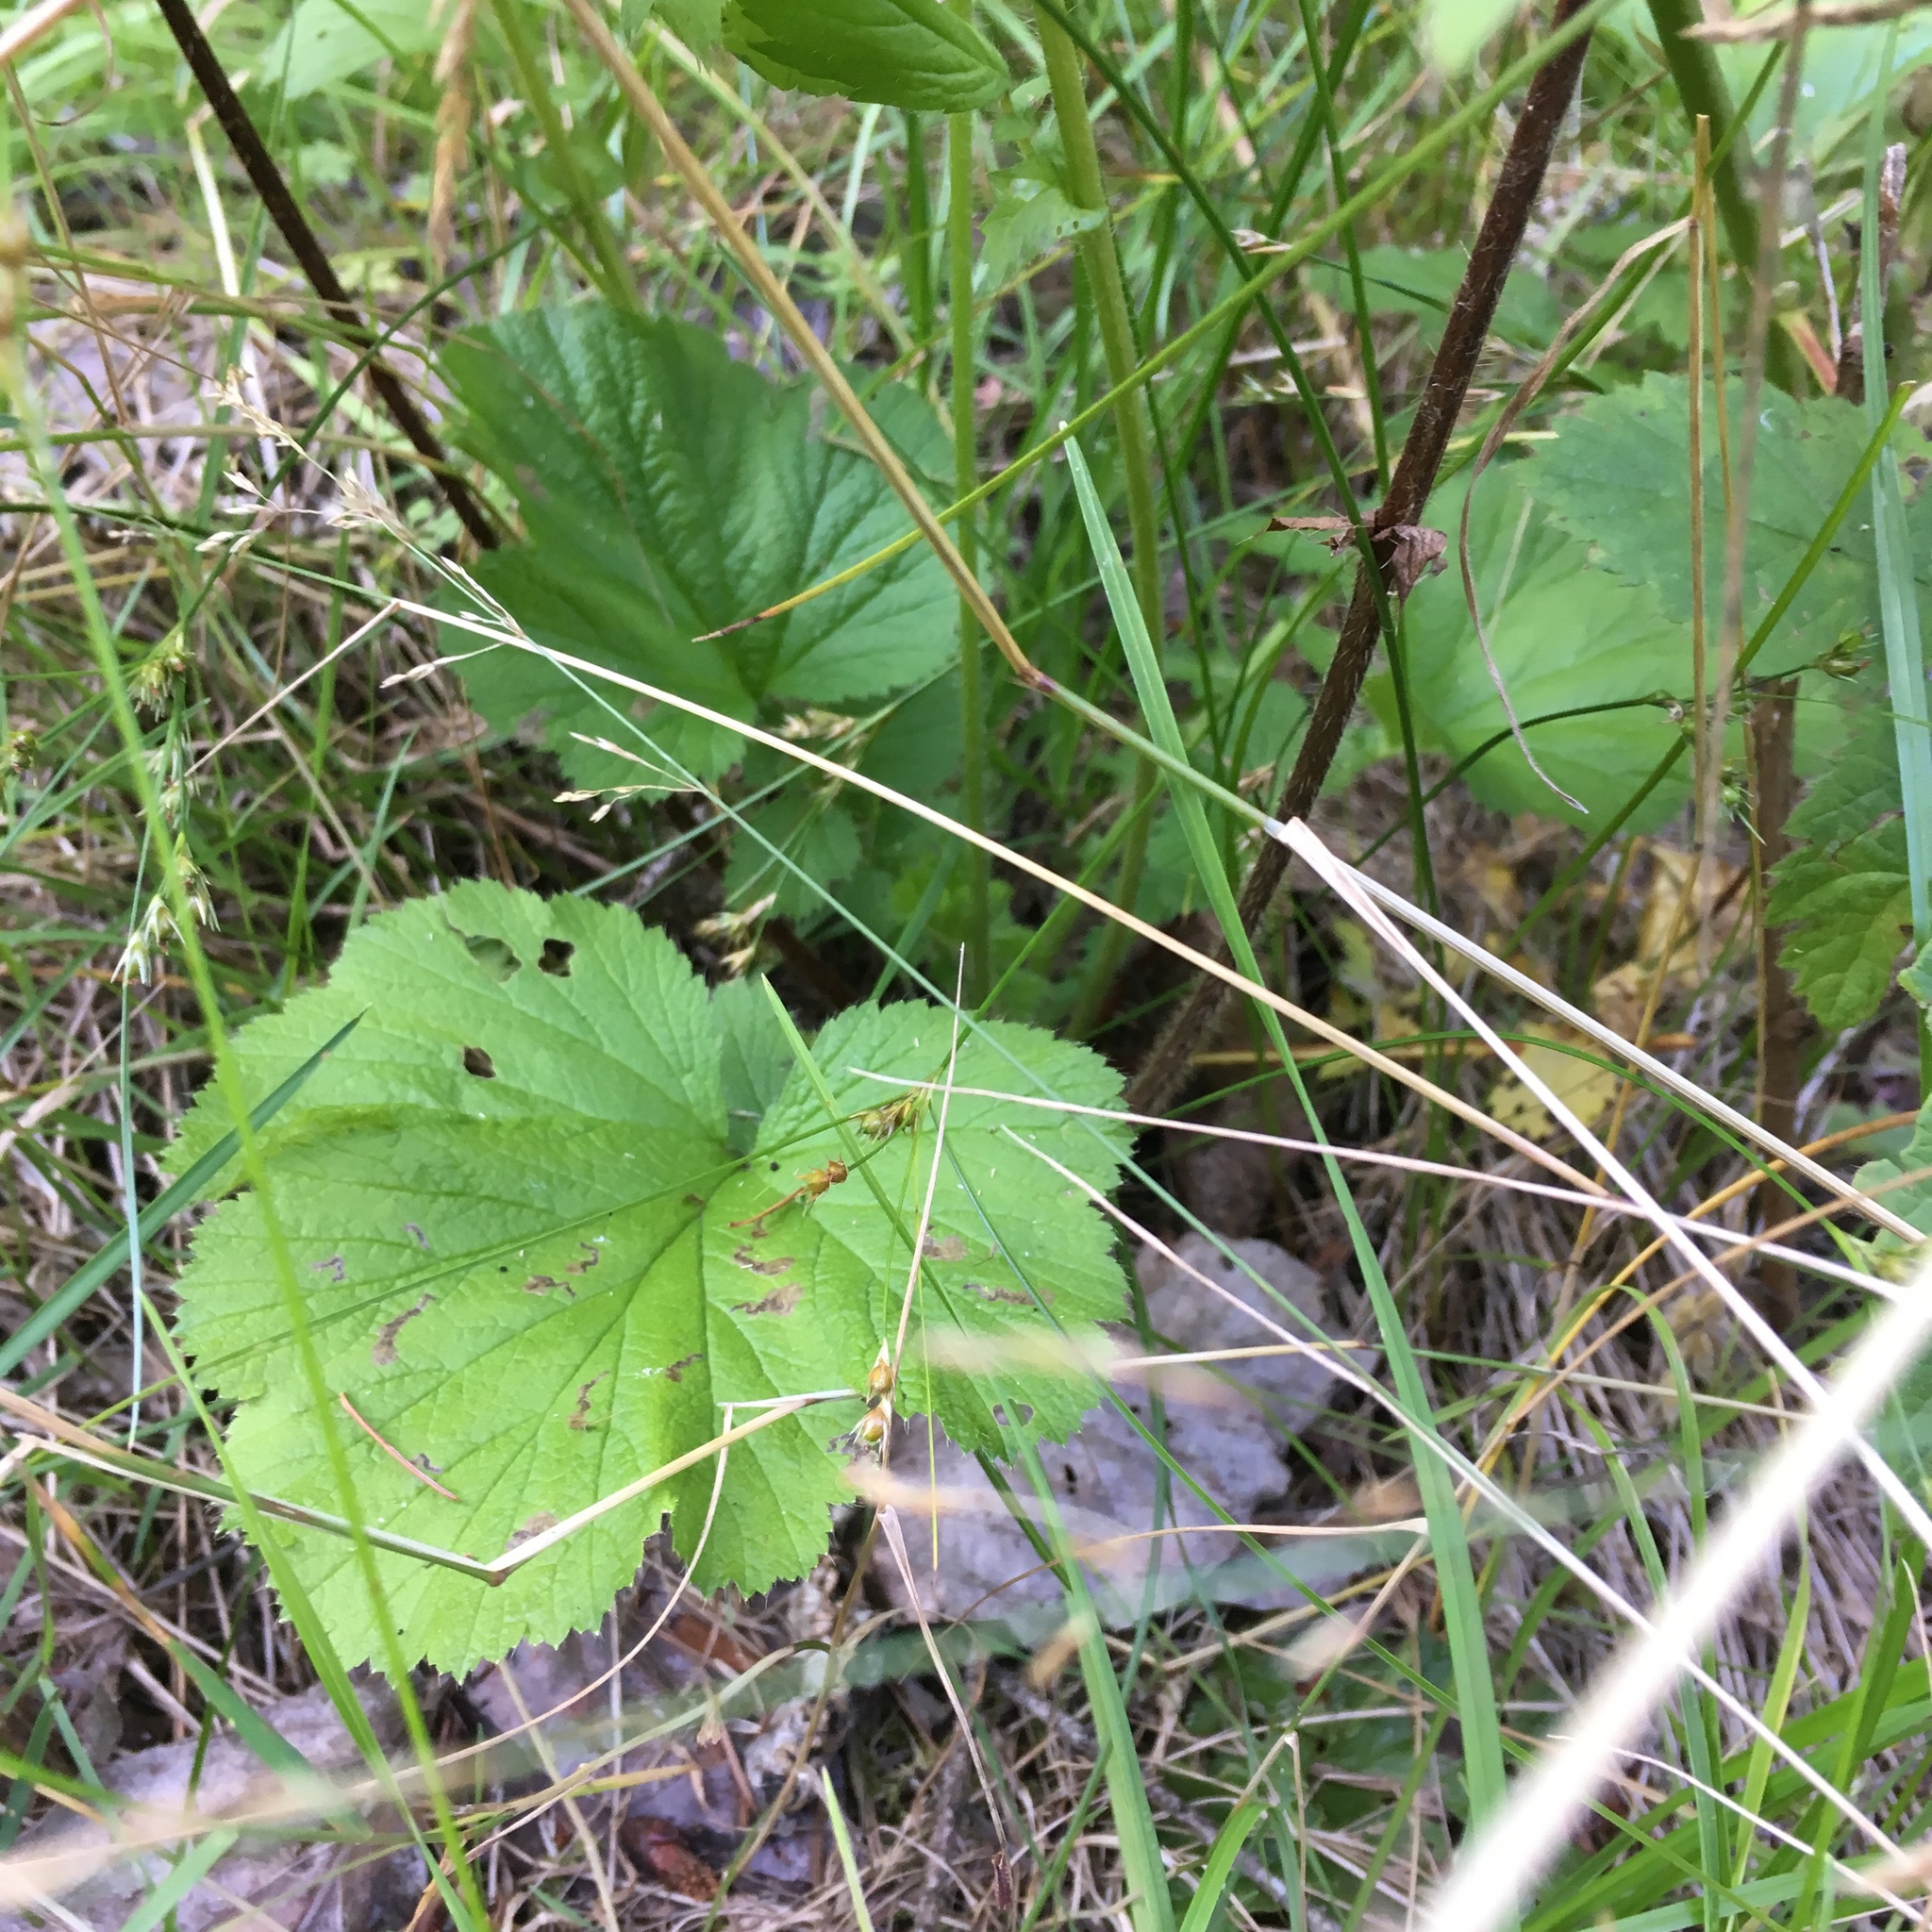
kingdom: Plantae
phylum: Tracheophyta
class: Magnoliopsida
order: Rosales
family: Rosaceae
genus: Geum
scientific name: Geum macrophyllum
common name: Large-leaved avens
